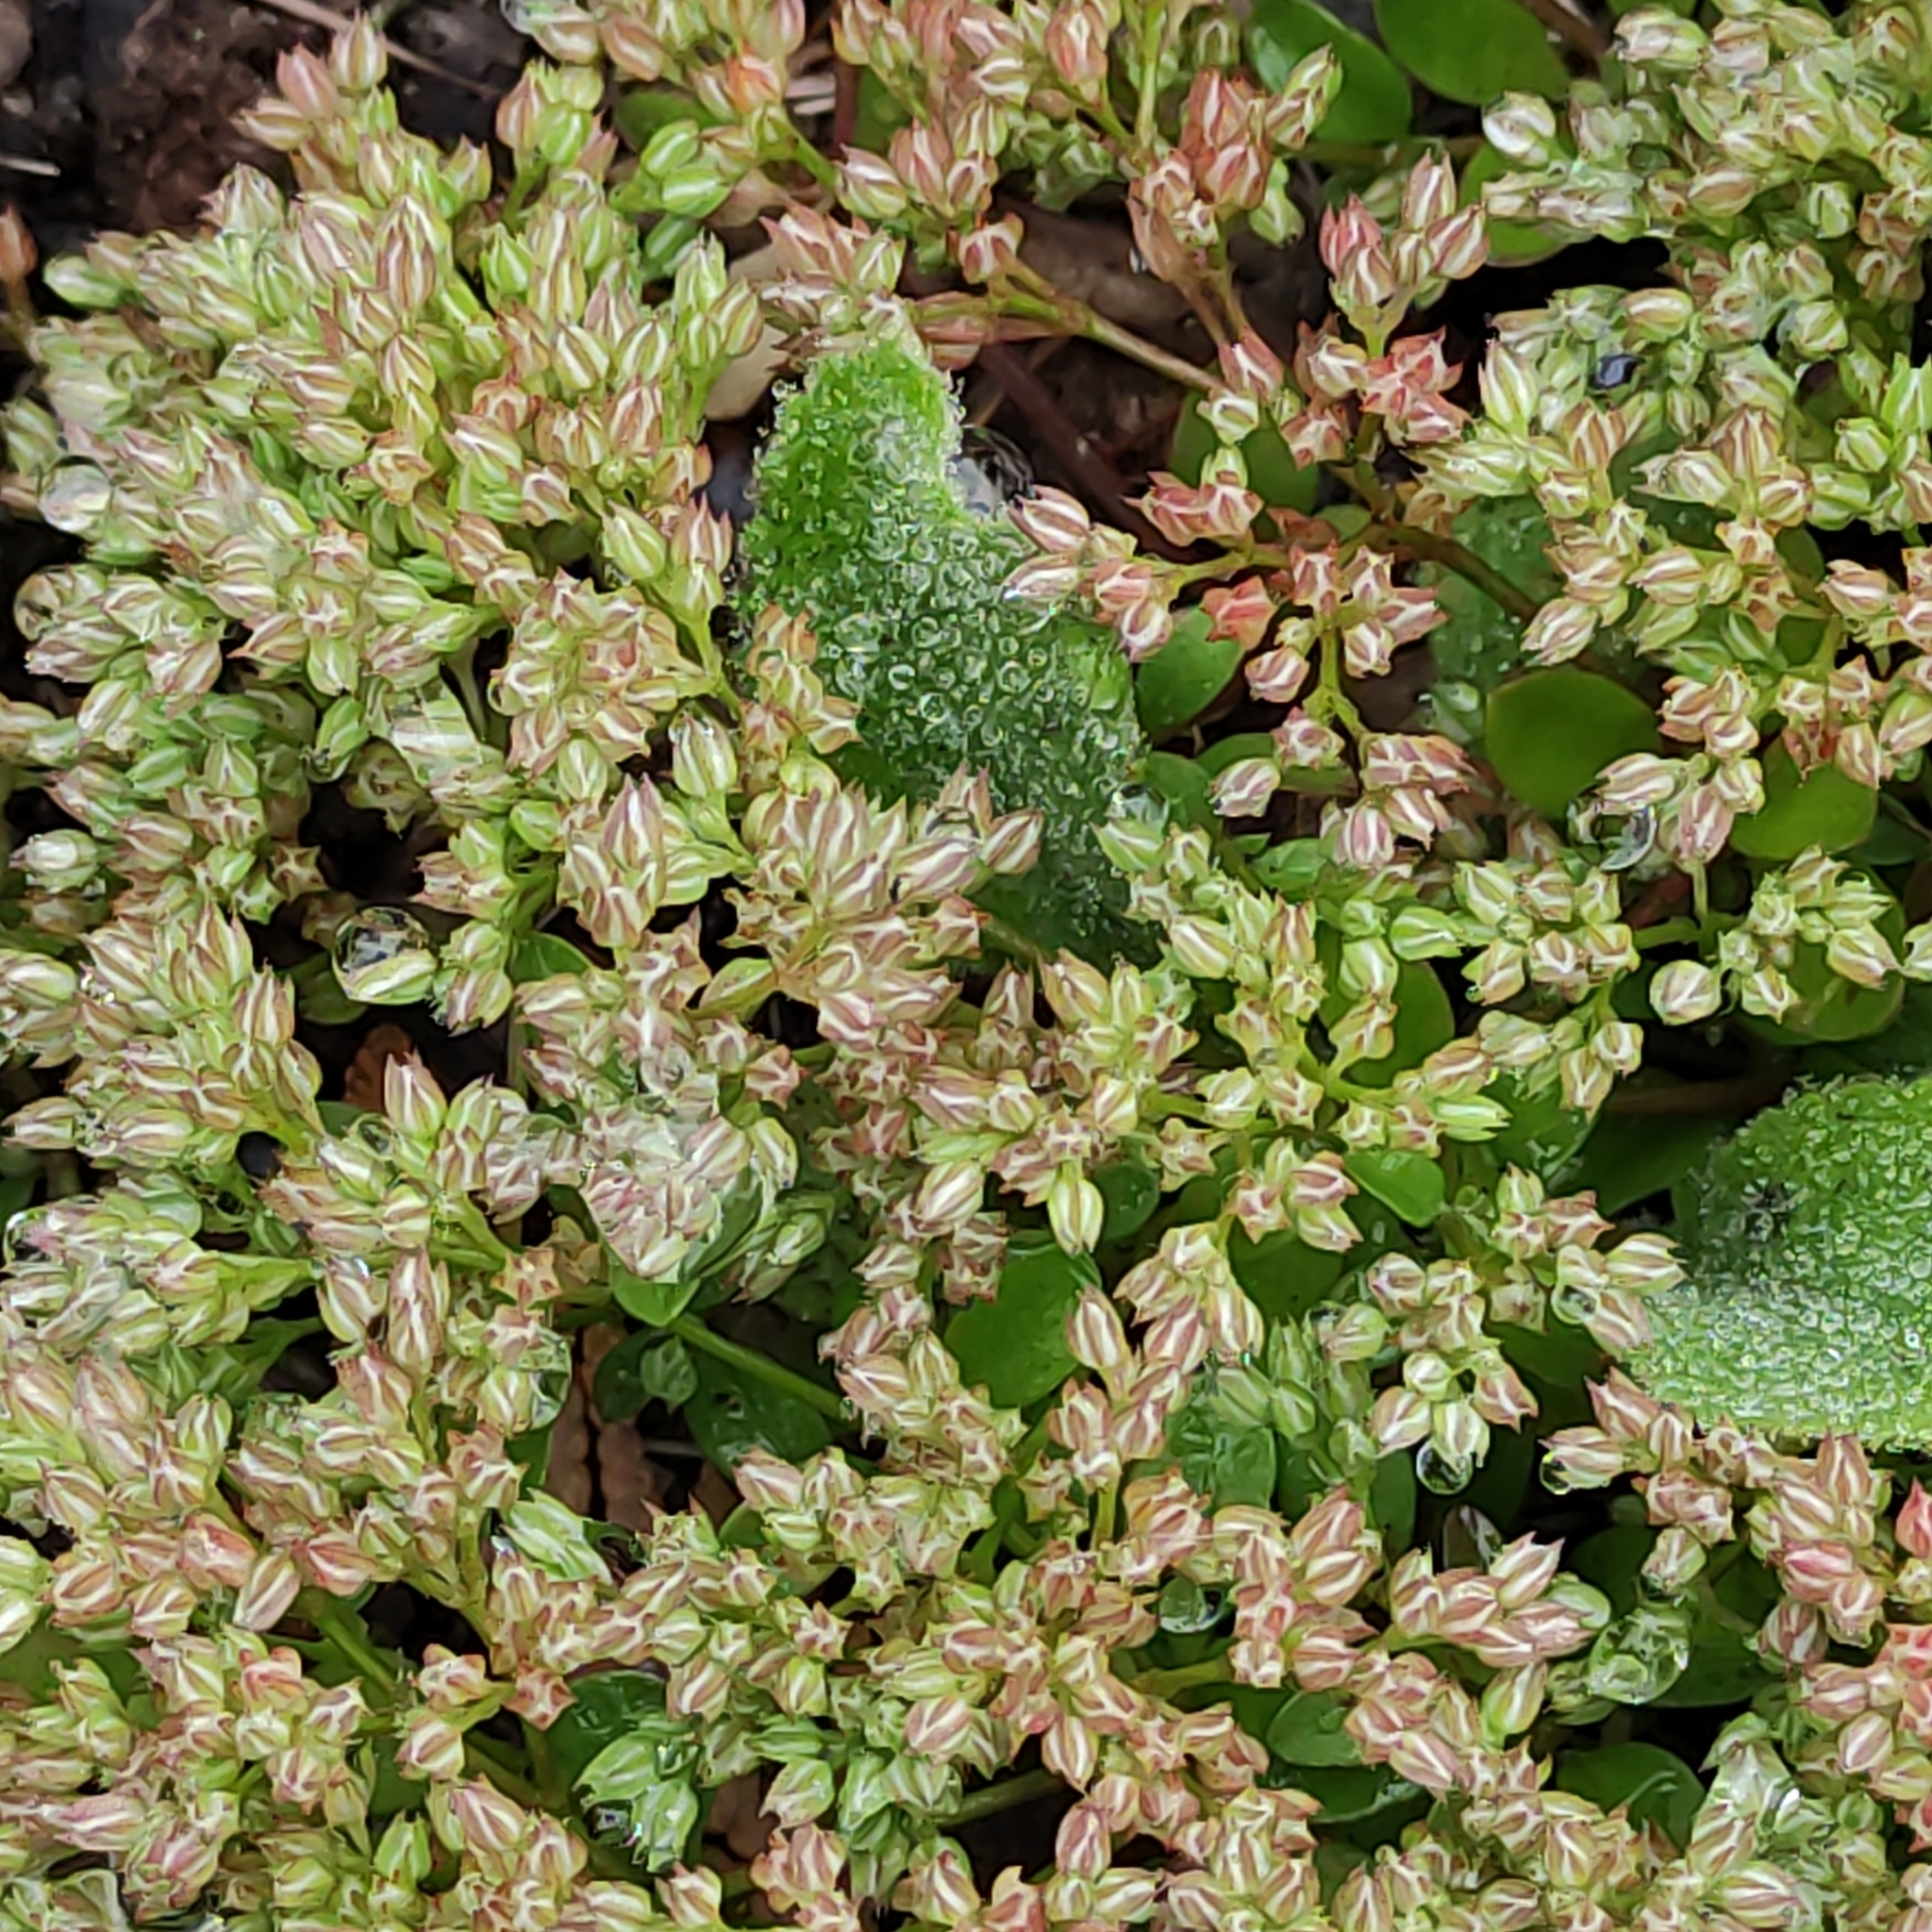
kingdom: Plantae
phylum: Tracheophyta
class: Magnoliopsida
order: Caryophyllales
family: Caryophyllaceae
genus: Polycarpon
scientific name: Polycarpon tetraphyllum
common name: Four-leaved all-seed
